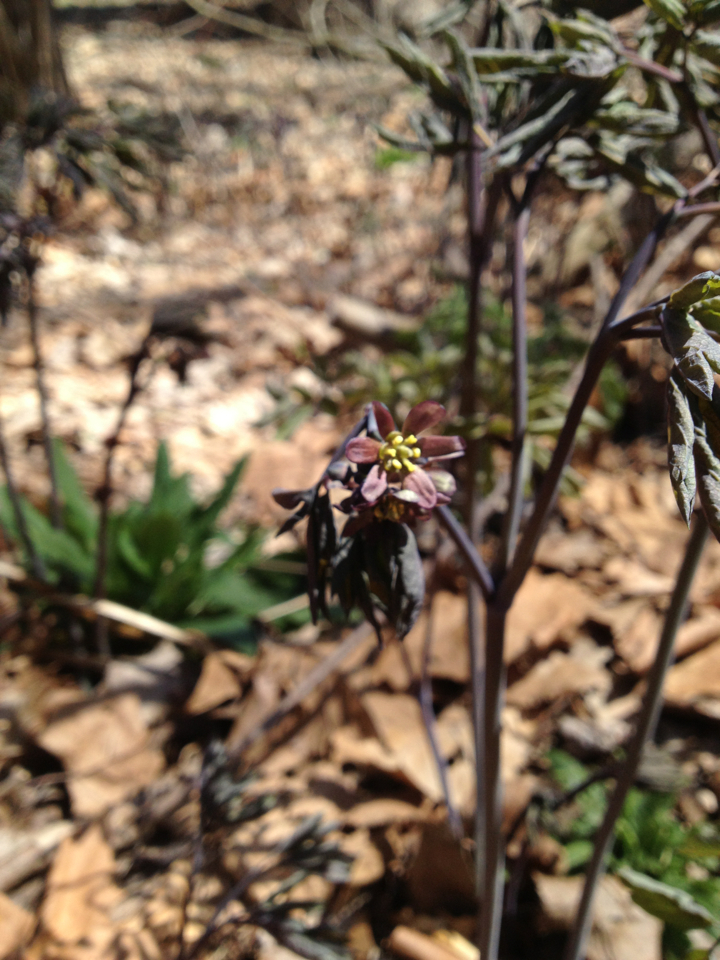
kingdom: Plantae
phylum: Tracheophyta
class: Magnoliopsida
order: Ranunculales
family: Berberidaceae
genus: Caulophyllum
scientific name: Caulophyllum giganteum
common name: Blue cohosh
